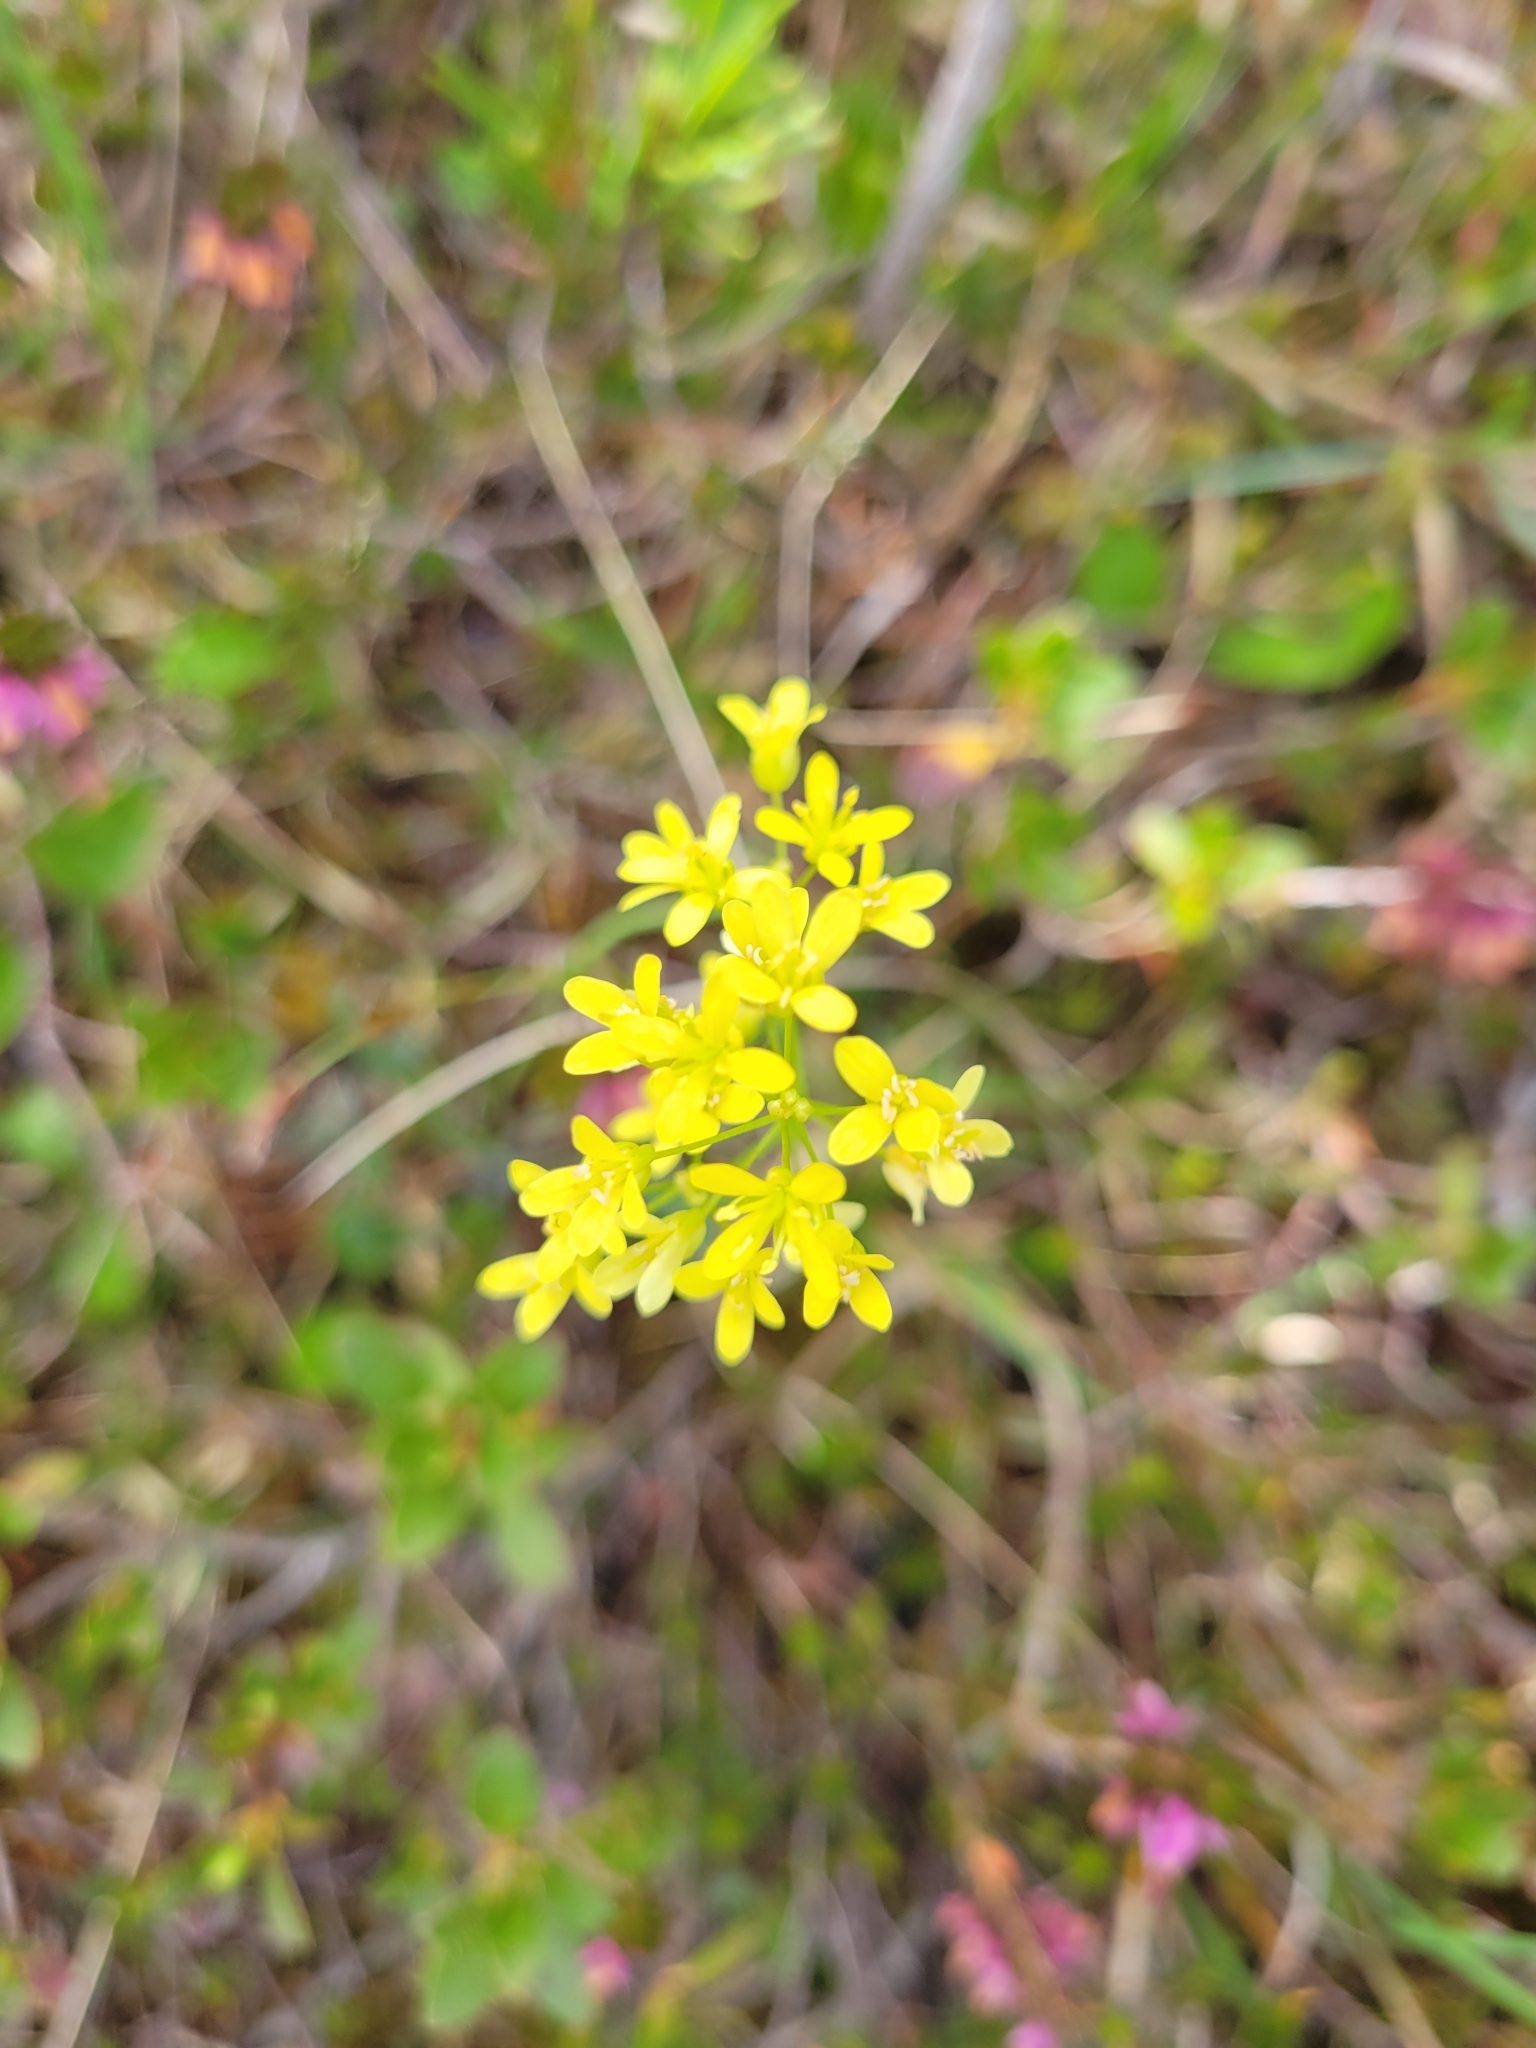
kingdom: Plantae
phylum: Tracheophyta
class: Magnoliopsida
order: Brassicales
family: Brassicaceae
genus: Biscutella
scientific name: Biscutella laevigata
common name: Buckler mustard
